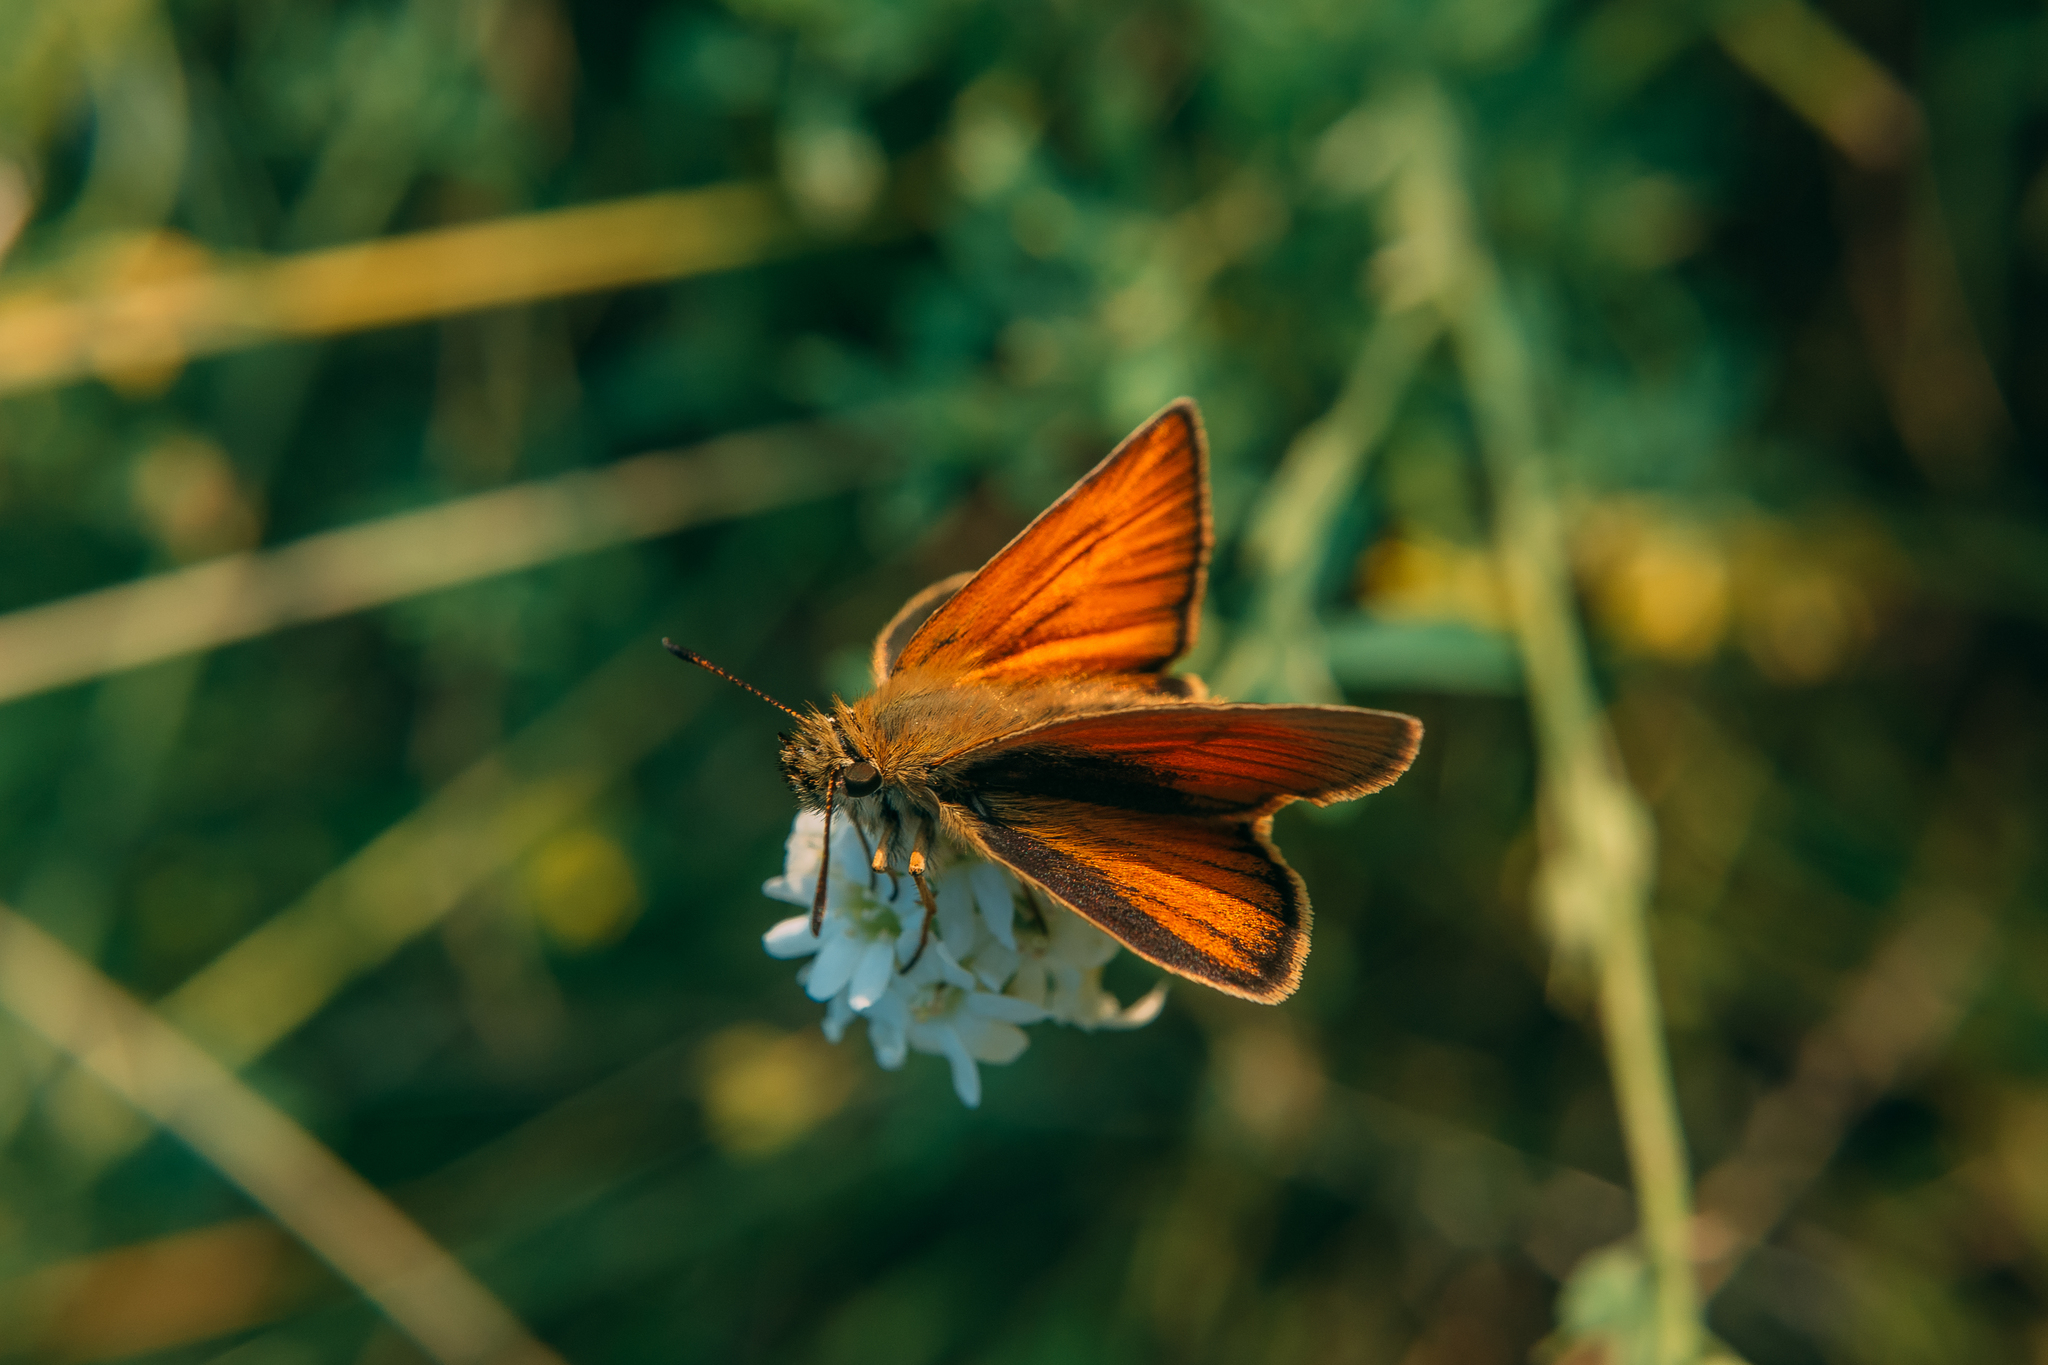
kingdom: Animalia
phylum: Arthropoda
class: Insecta
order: Lepidoptera
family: Hesperiidae
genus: Thymelicus
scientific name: Thymelicus lineola
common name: Essex skipper
